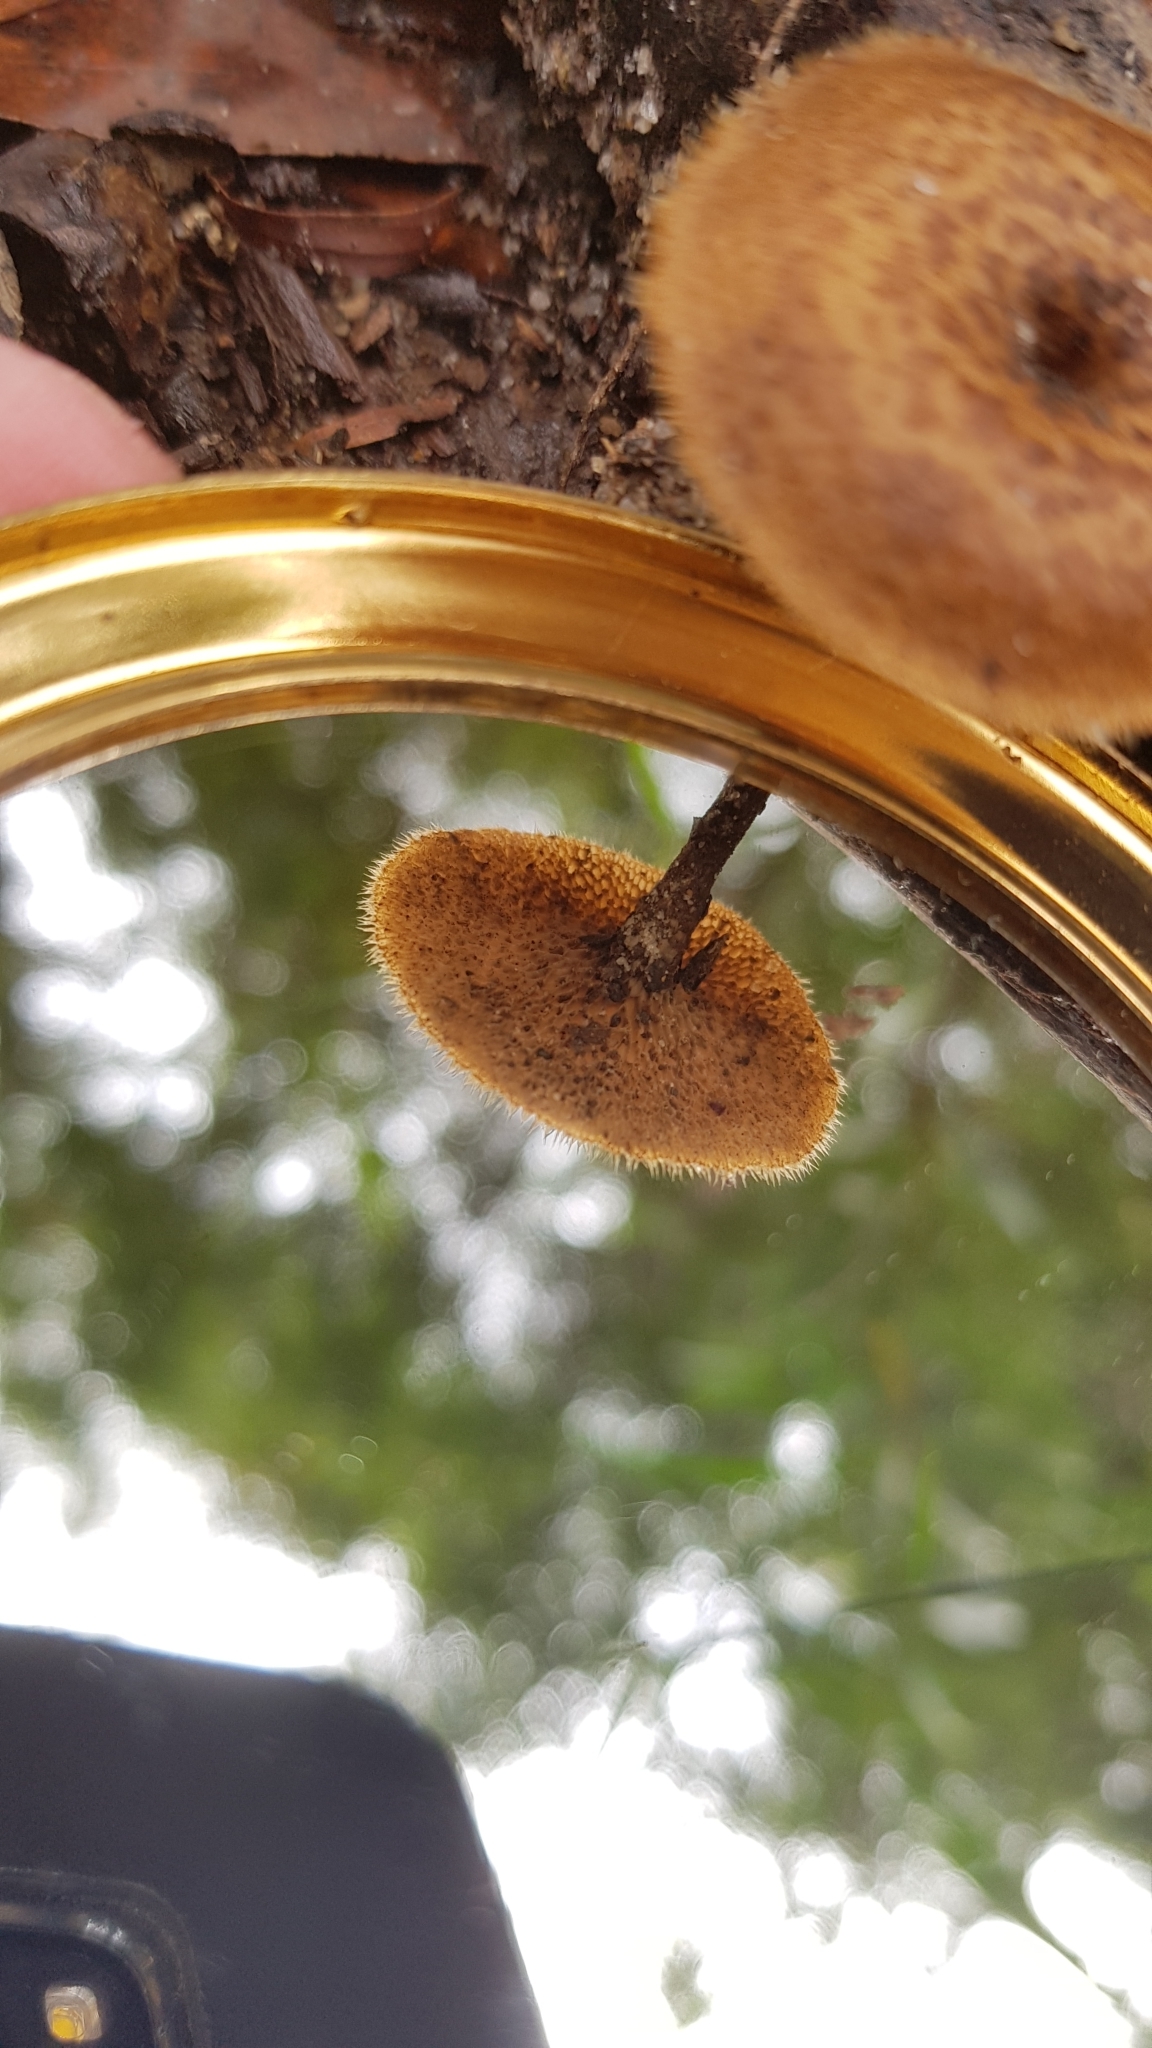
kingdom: Fungi
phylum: Basidiomycota
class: Agaricomycetes
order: Polyporales
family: Polyporaceae
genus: Lentinus
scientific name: Lentinus arcularius
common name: Spring polypore
